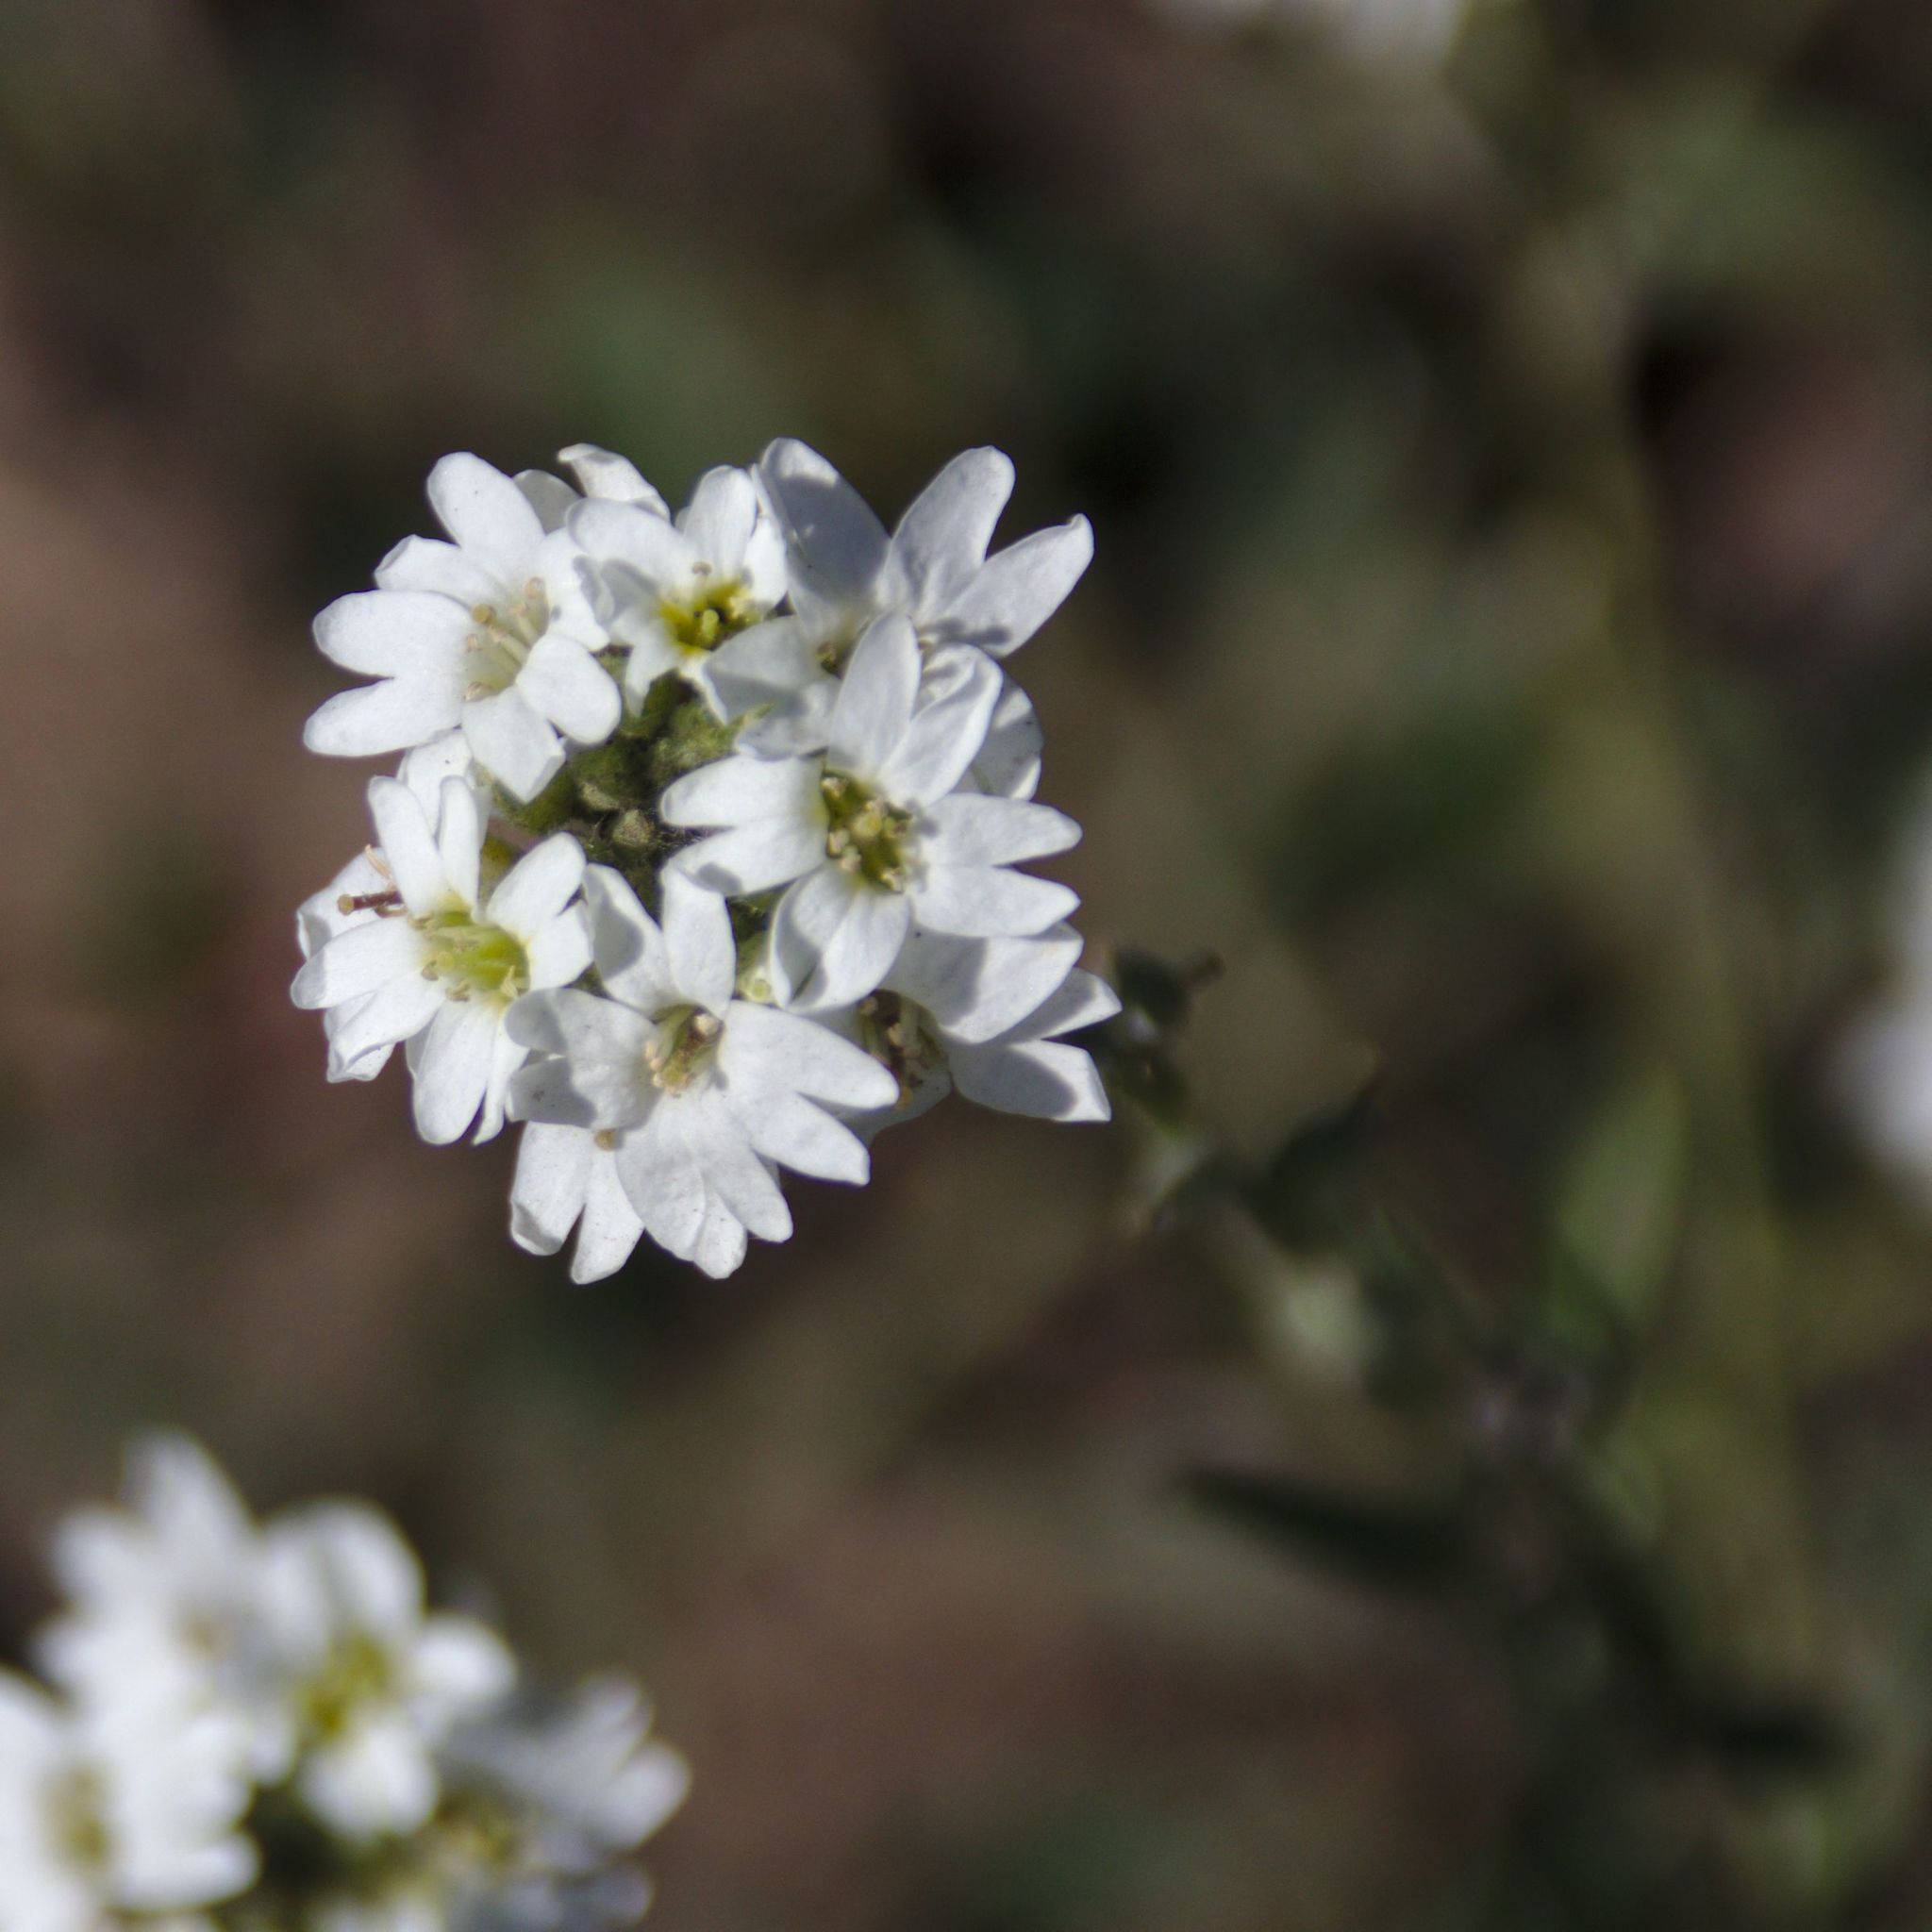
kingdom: Plantae
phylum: Tracheophyta
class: Magnoliopsida
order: Brassicales
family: Brassicaceae
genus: Berteroa
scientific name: Berteroa incana
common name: Hoary alison
